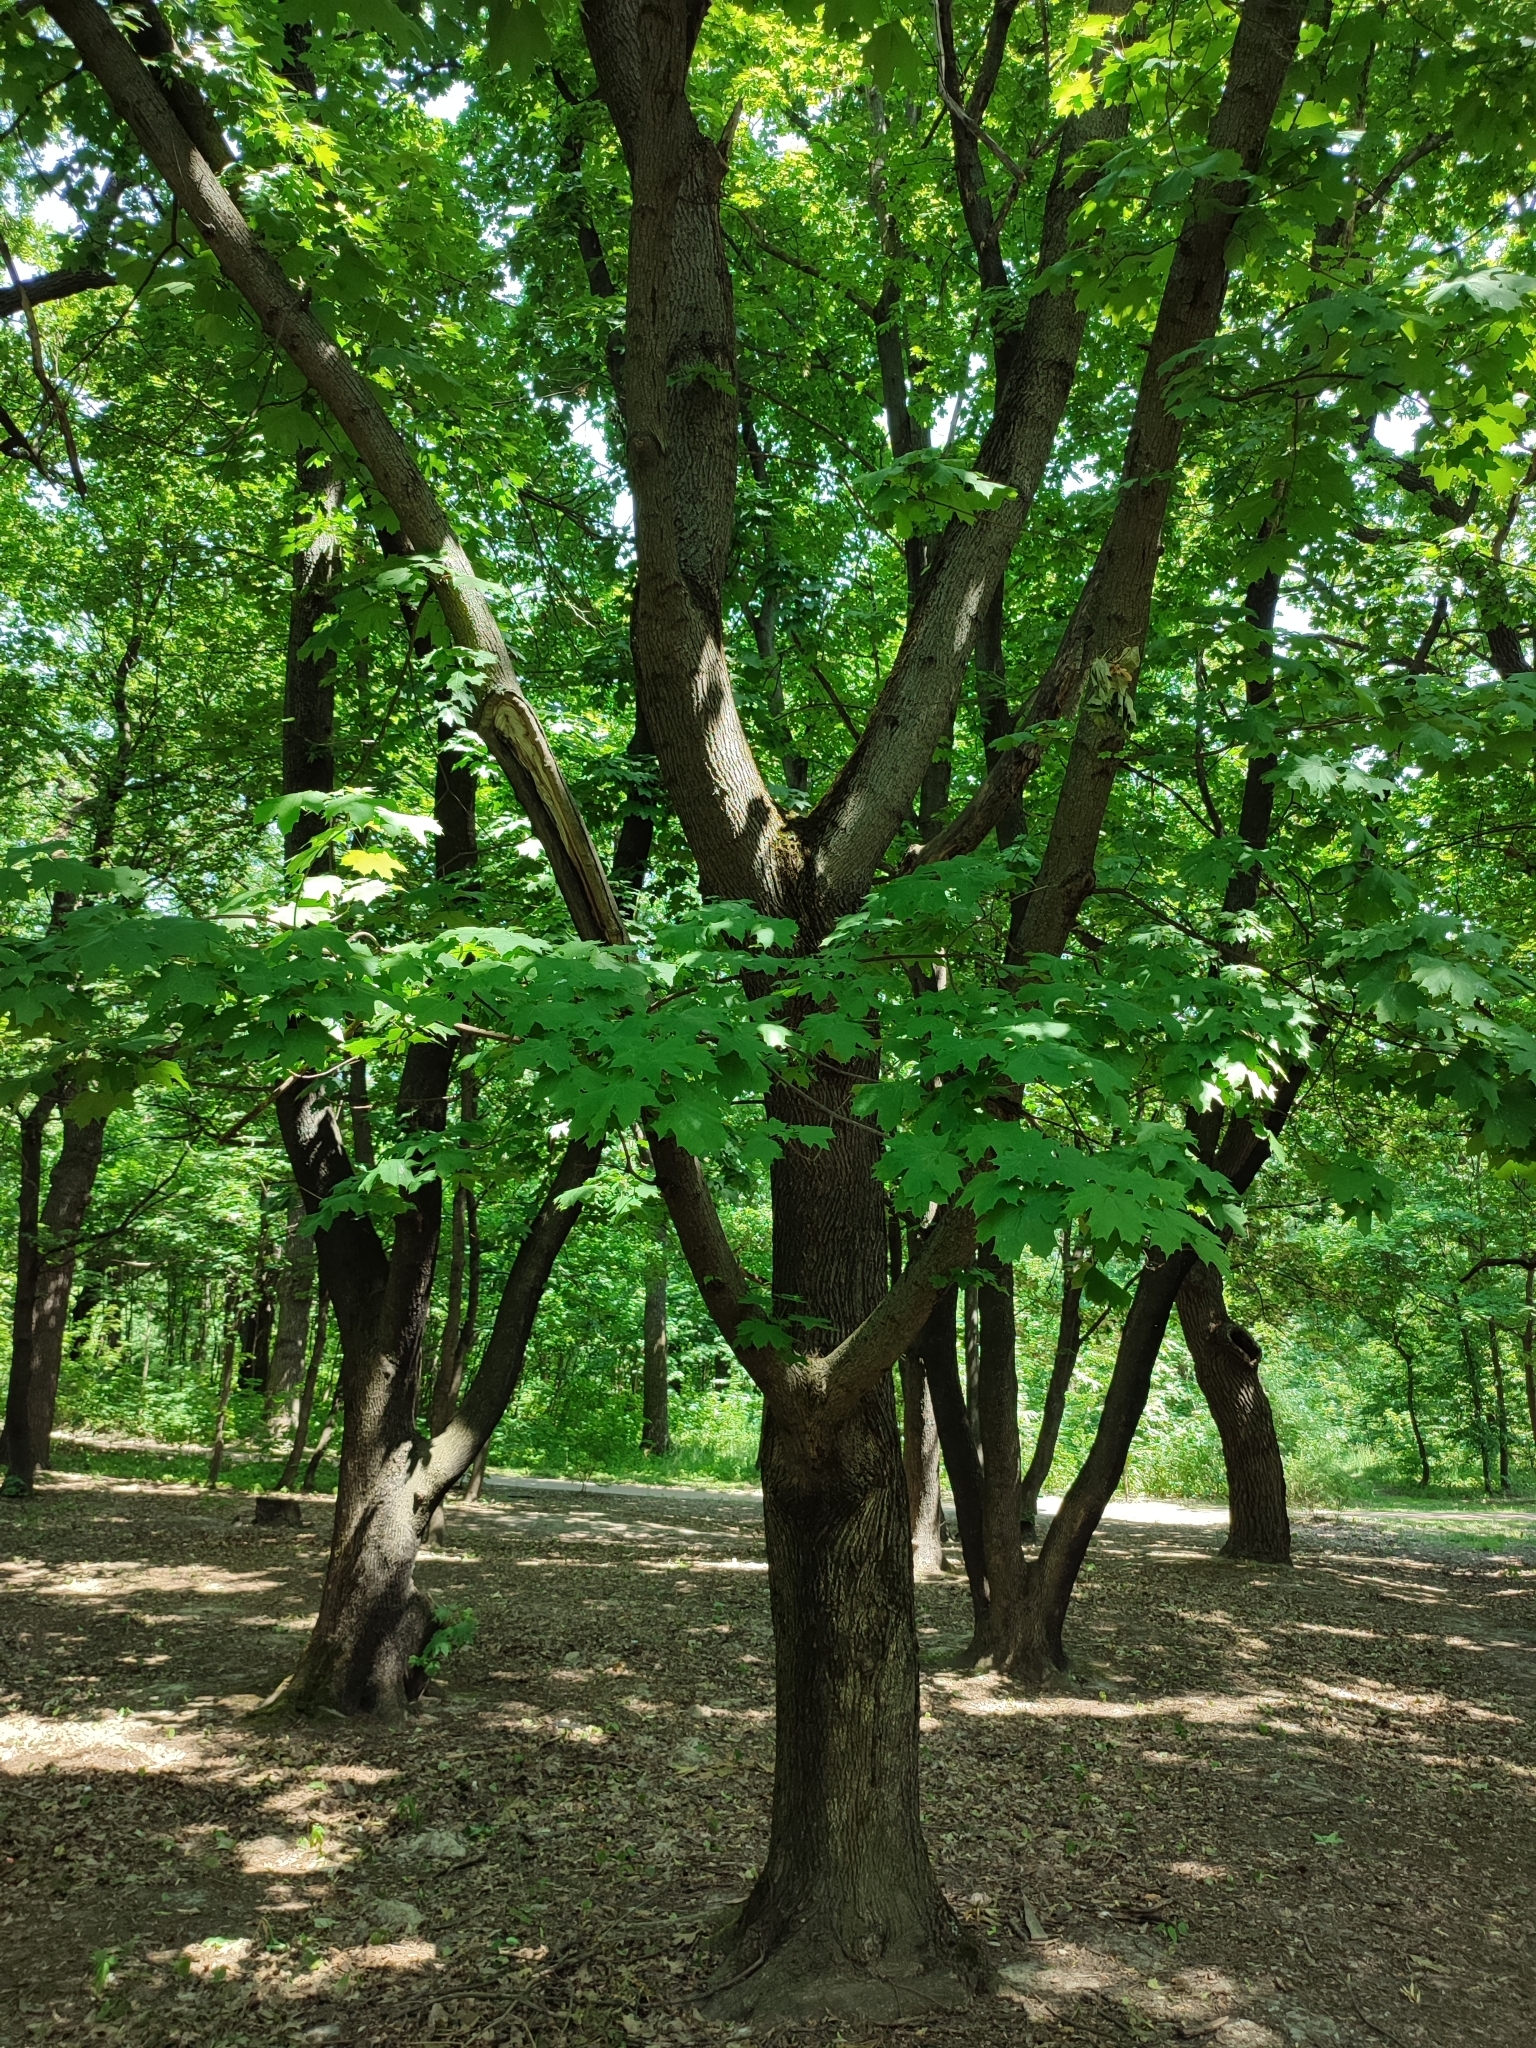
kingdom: Plantae
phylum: Tracheophyta
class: Magnoliopsida
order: Sapindales
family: Sapindaceae
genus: Acer
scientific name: Acer platanoides
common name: Norway maple
